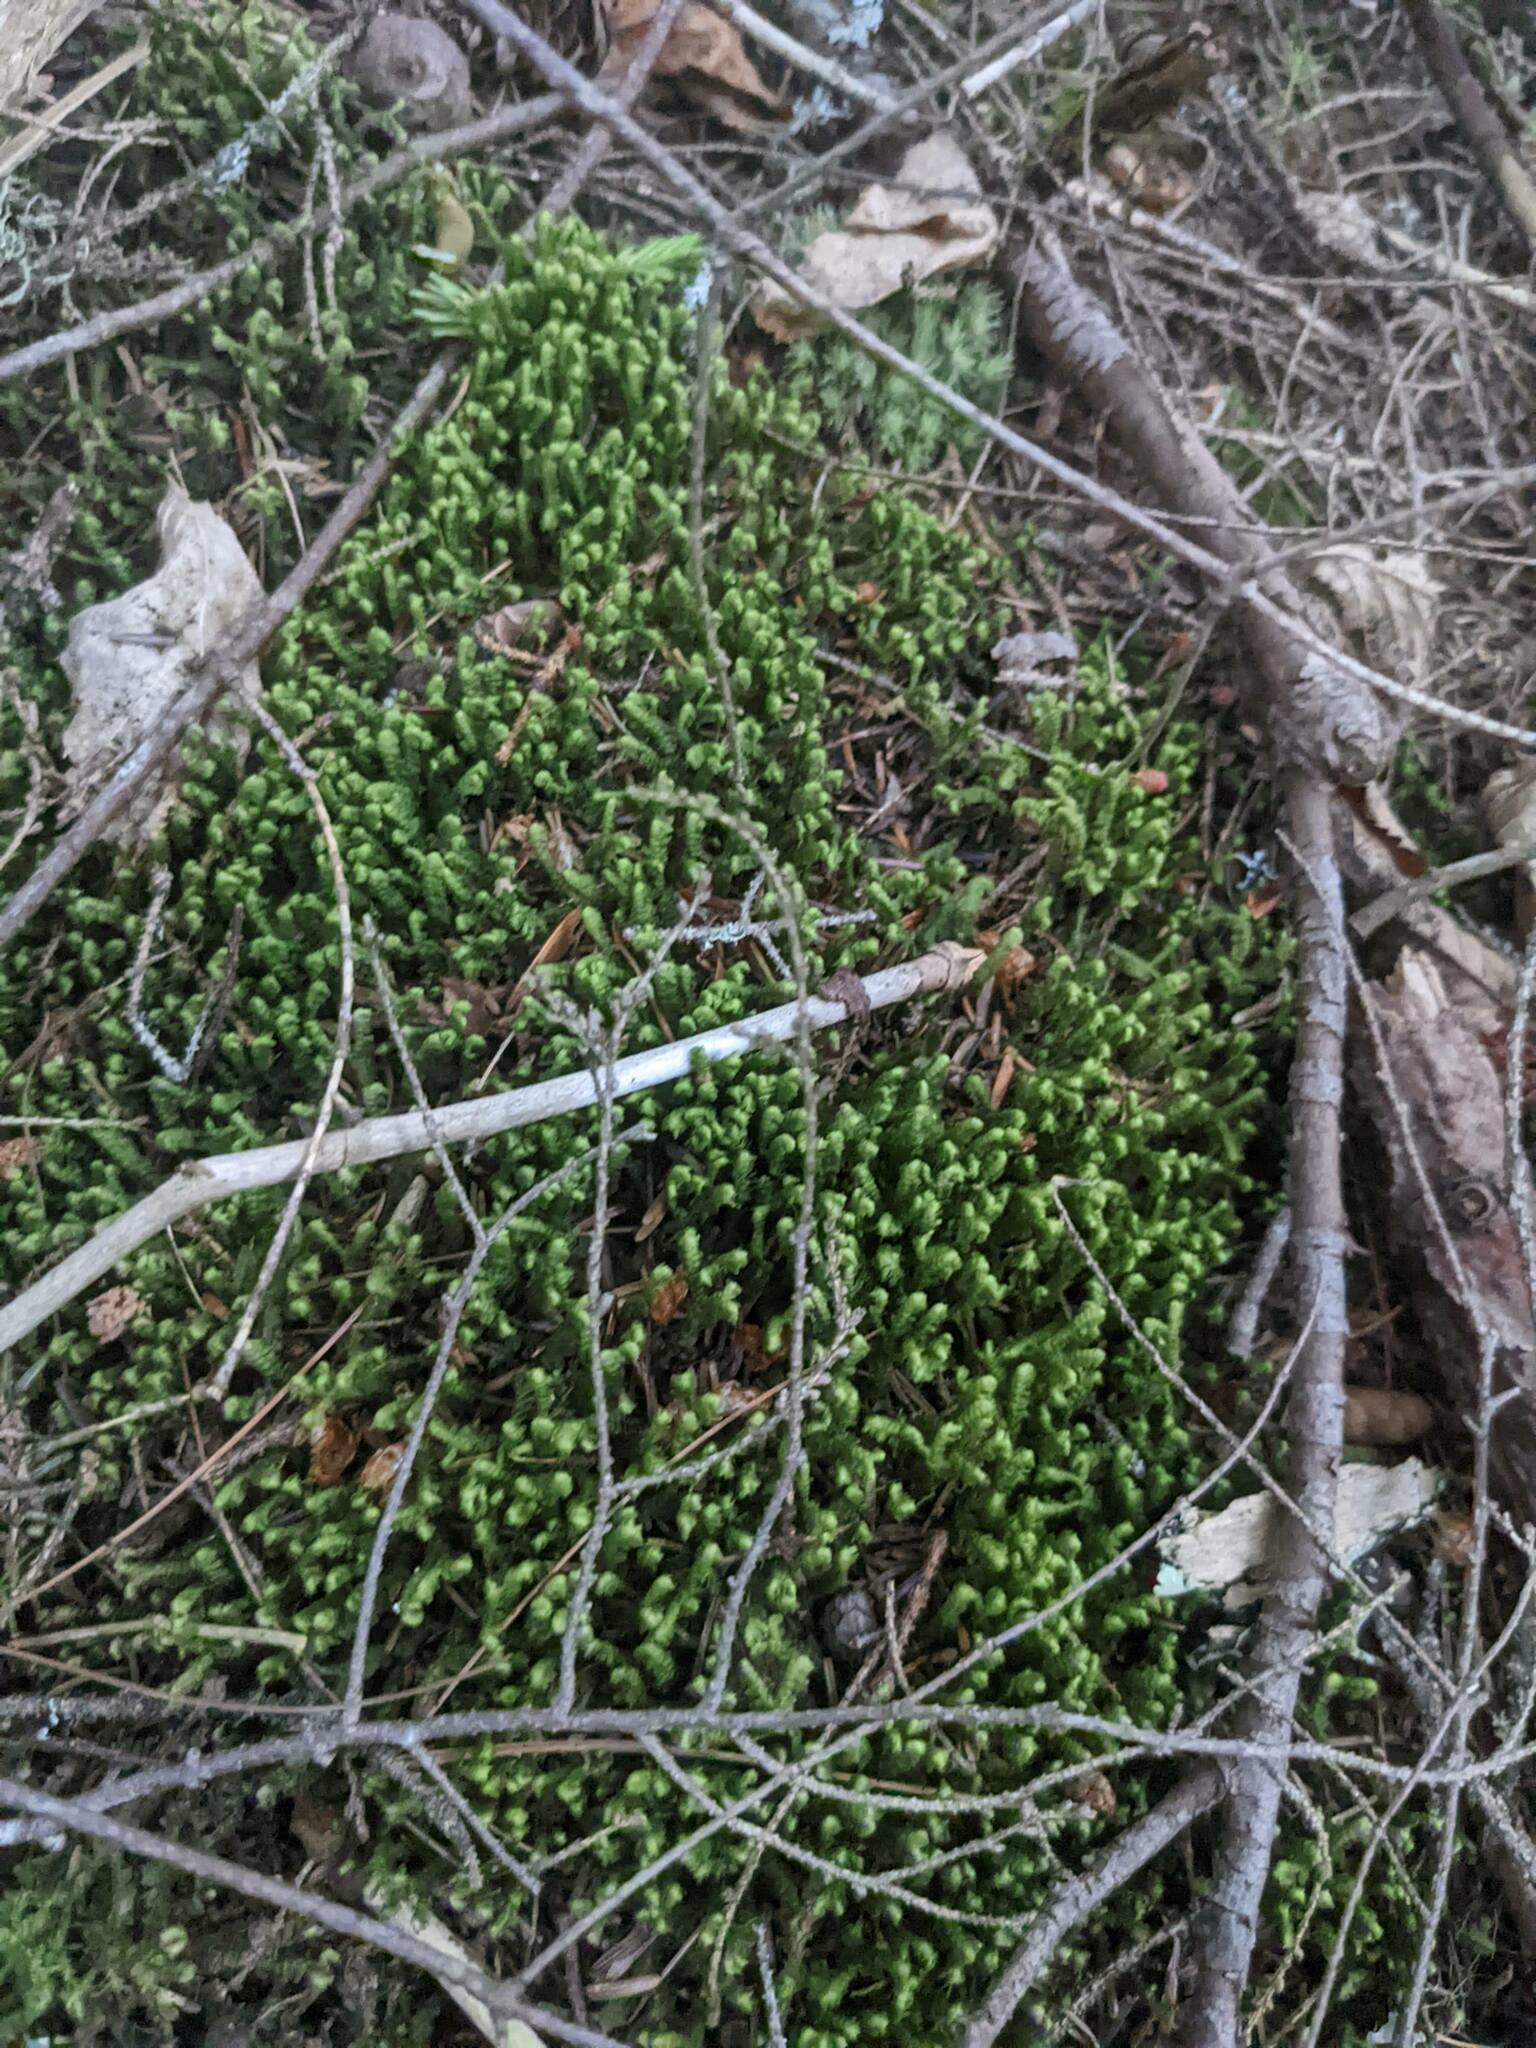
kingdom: Plantae
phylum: Marchantiophyta
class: Jungermanniopsida
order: Jungermanniales
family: Lepidoziaceae
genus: Bazzania
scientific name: Bazzania trilobata
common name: Three-lobed whipwort
